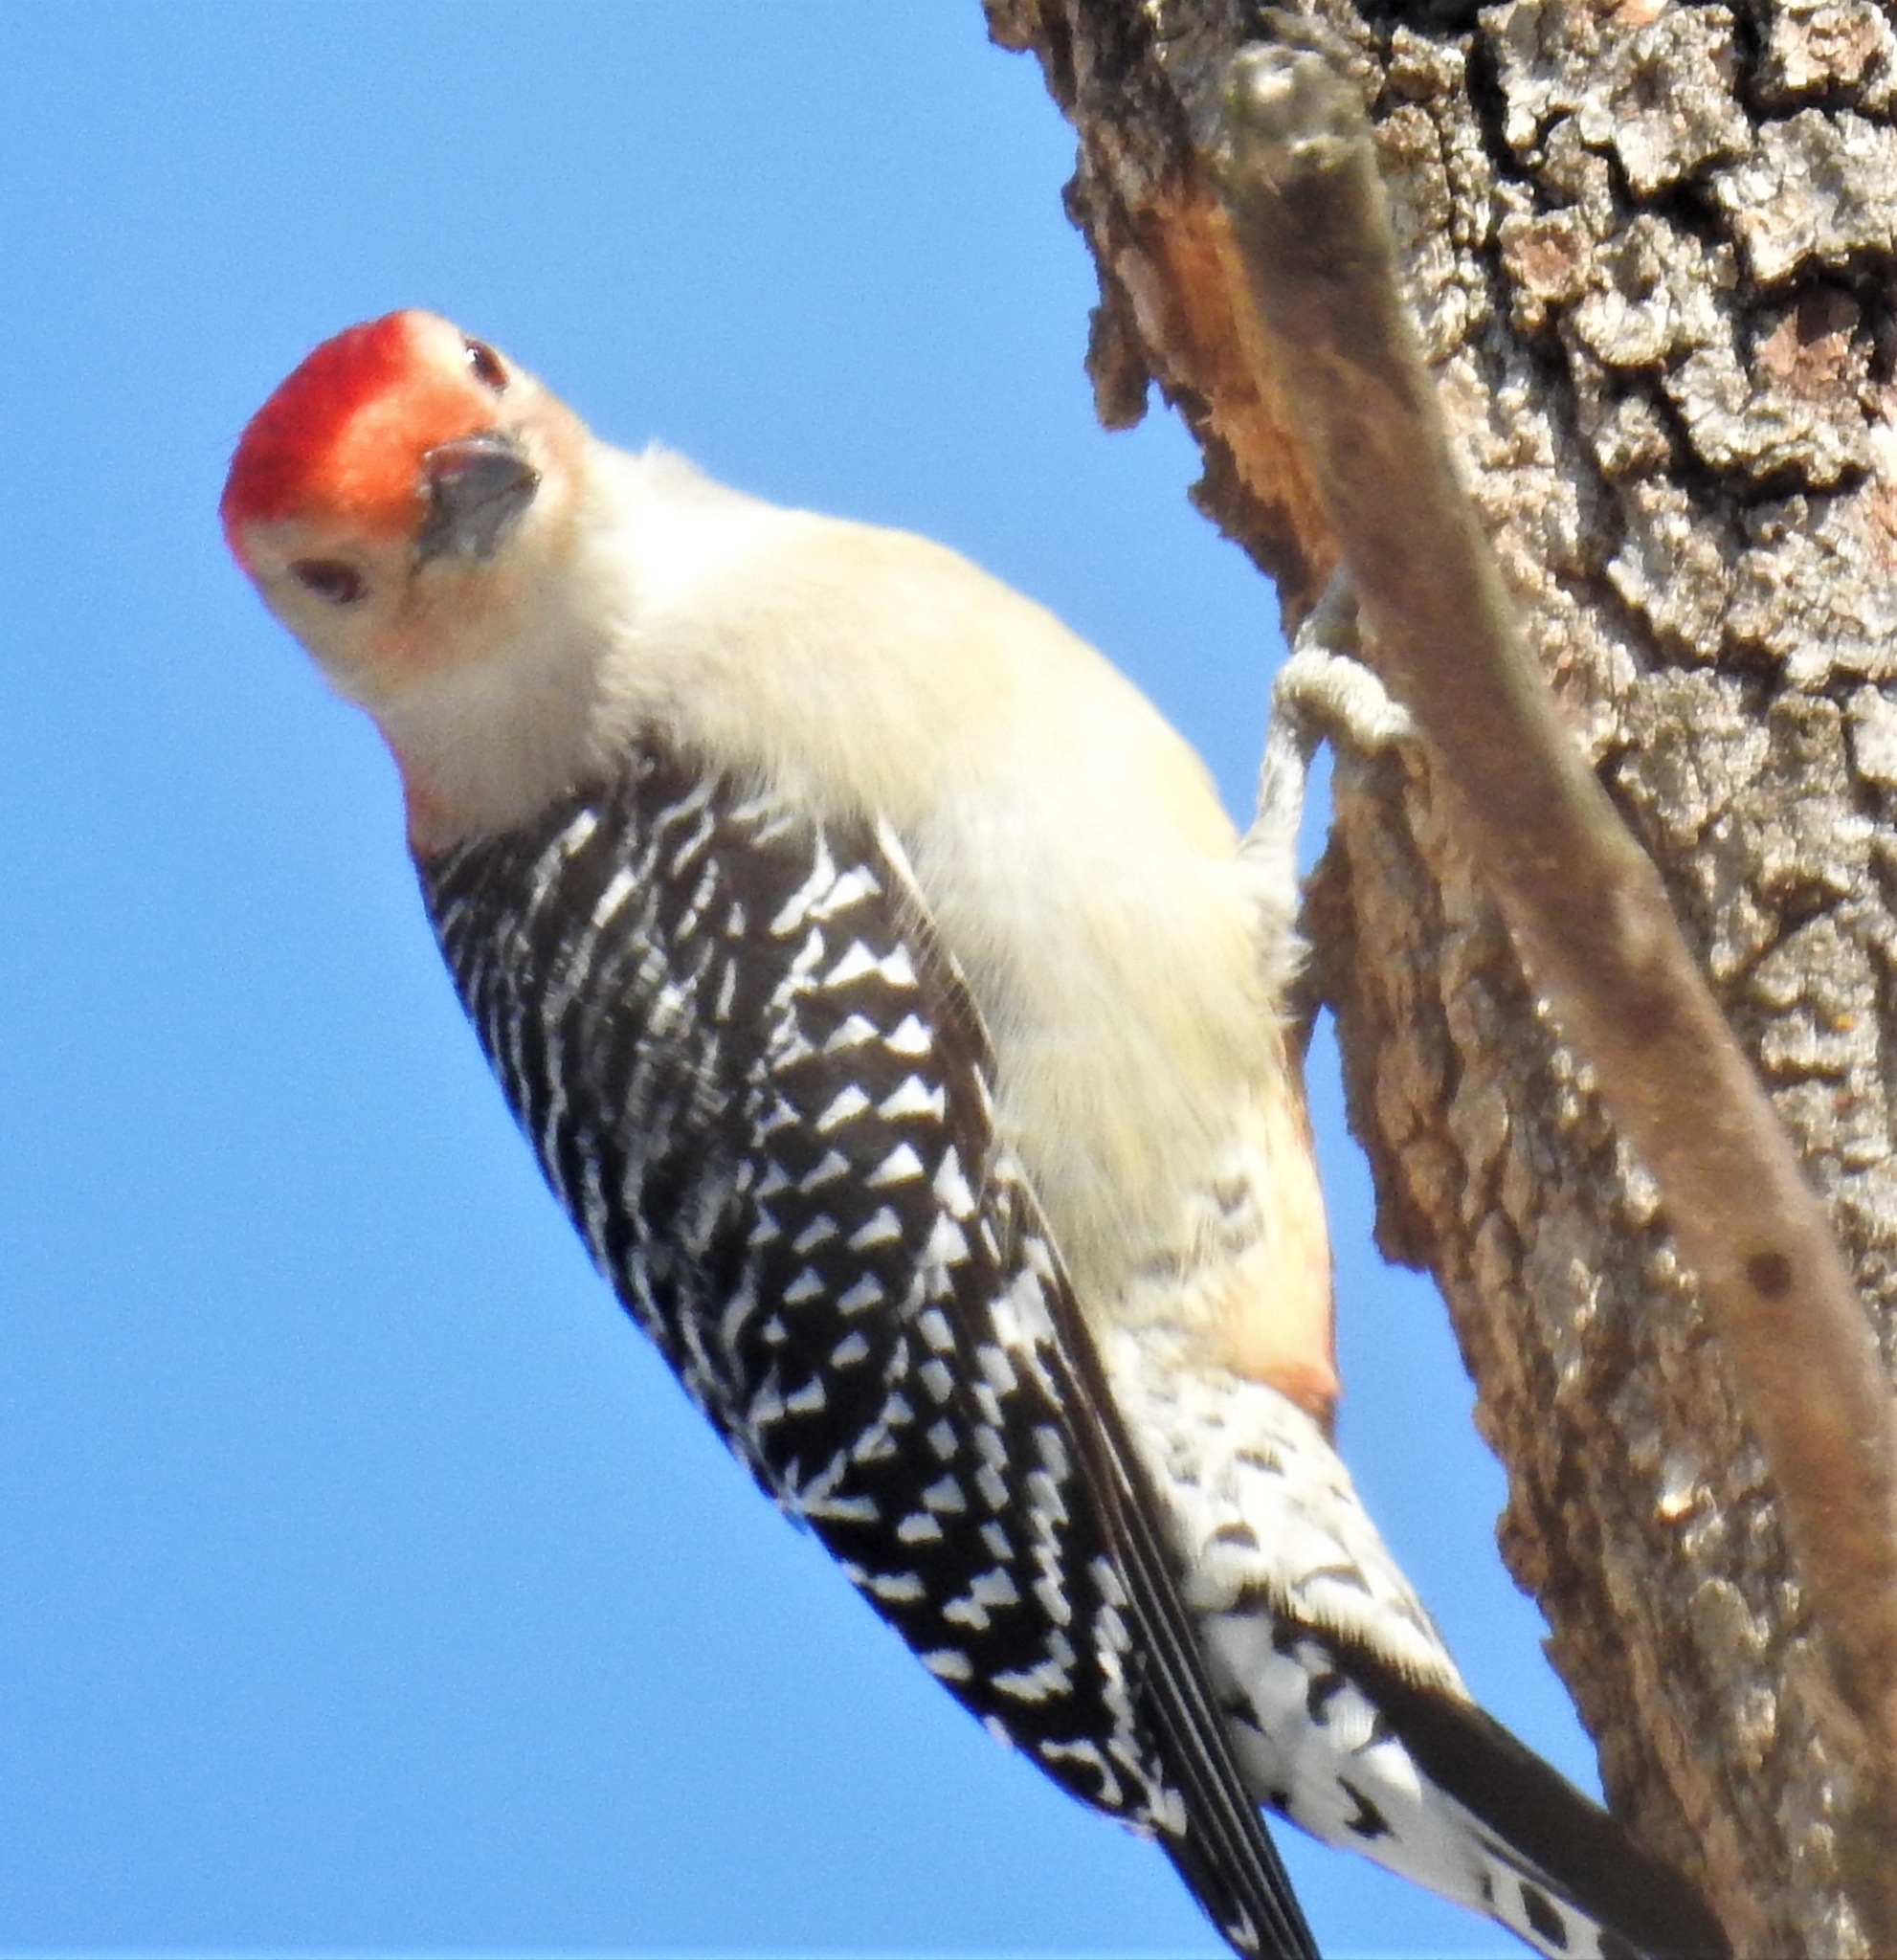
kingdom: Animalia
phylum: Chordata
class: Aves
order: Piciformes
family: Picidae
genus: Melanerpes
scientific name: Melanerpes carolinus
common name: Red-bellied woodpecker
